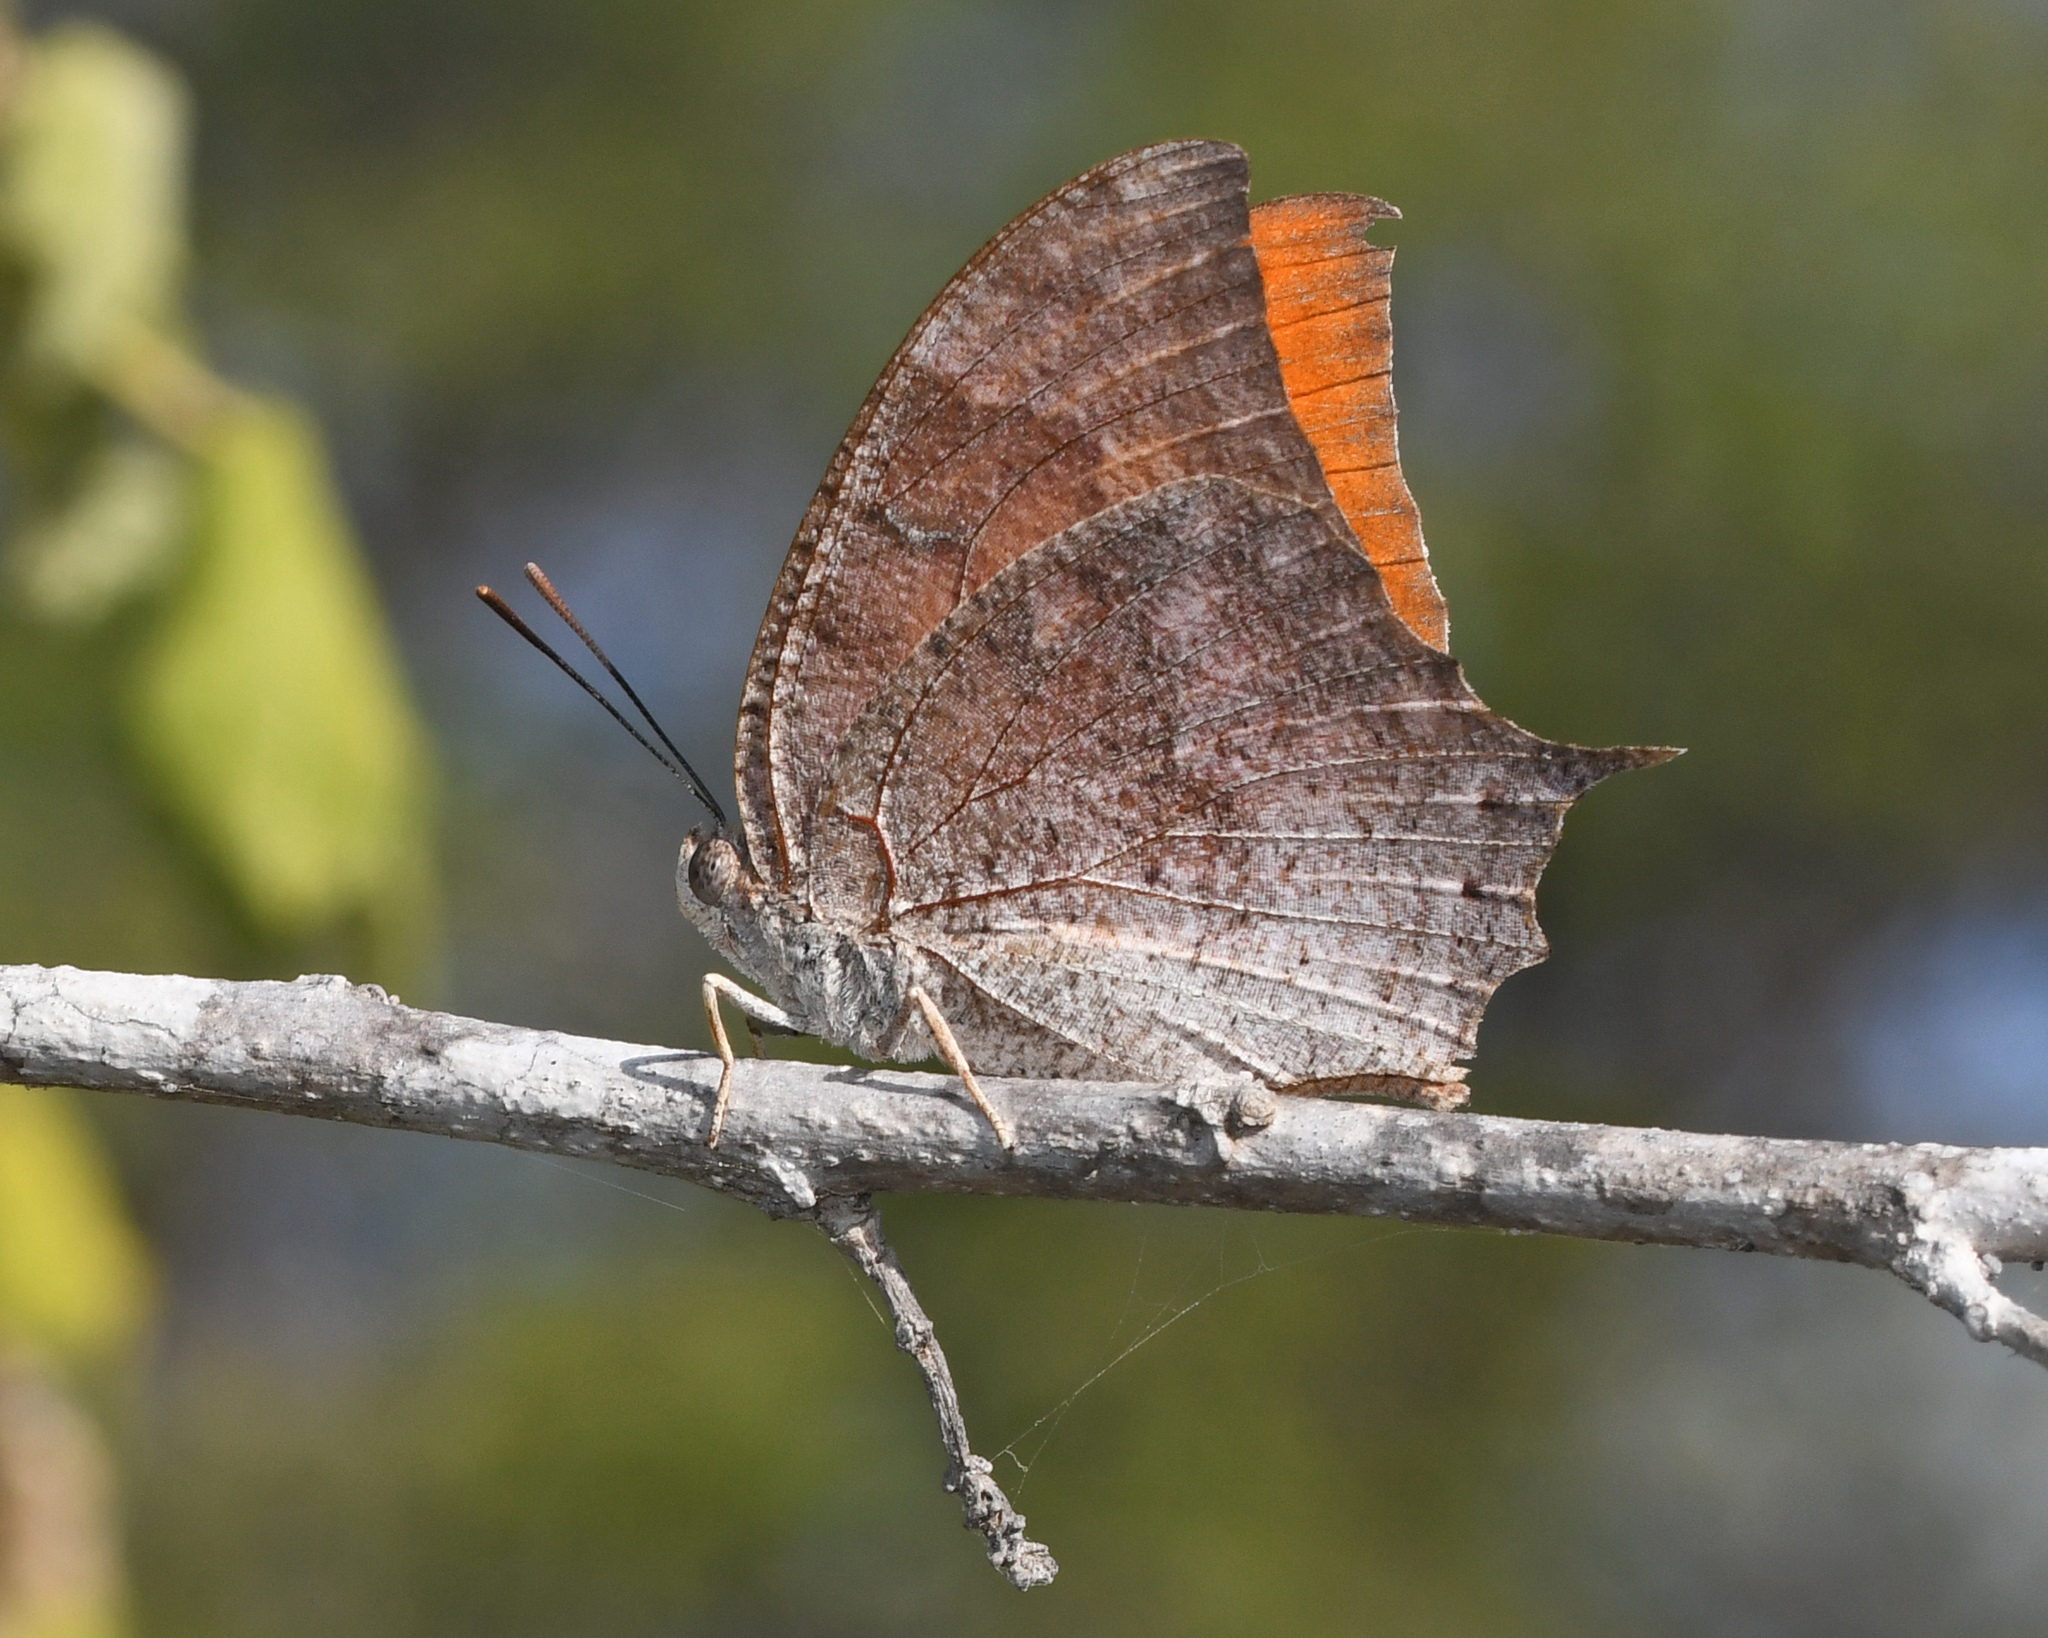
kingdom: Animalia
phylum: Arthropoda
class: Insecta
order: Lepidoptera
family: Nymphalidae
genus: Anaea
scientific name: Anaea troglodyta
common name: Florida leafwing
